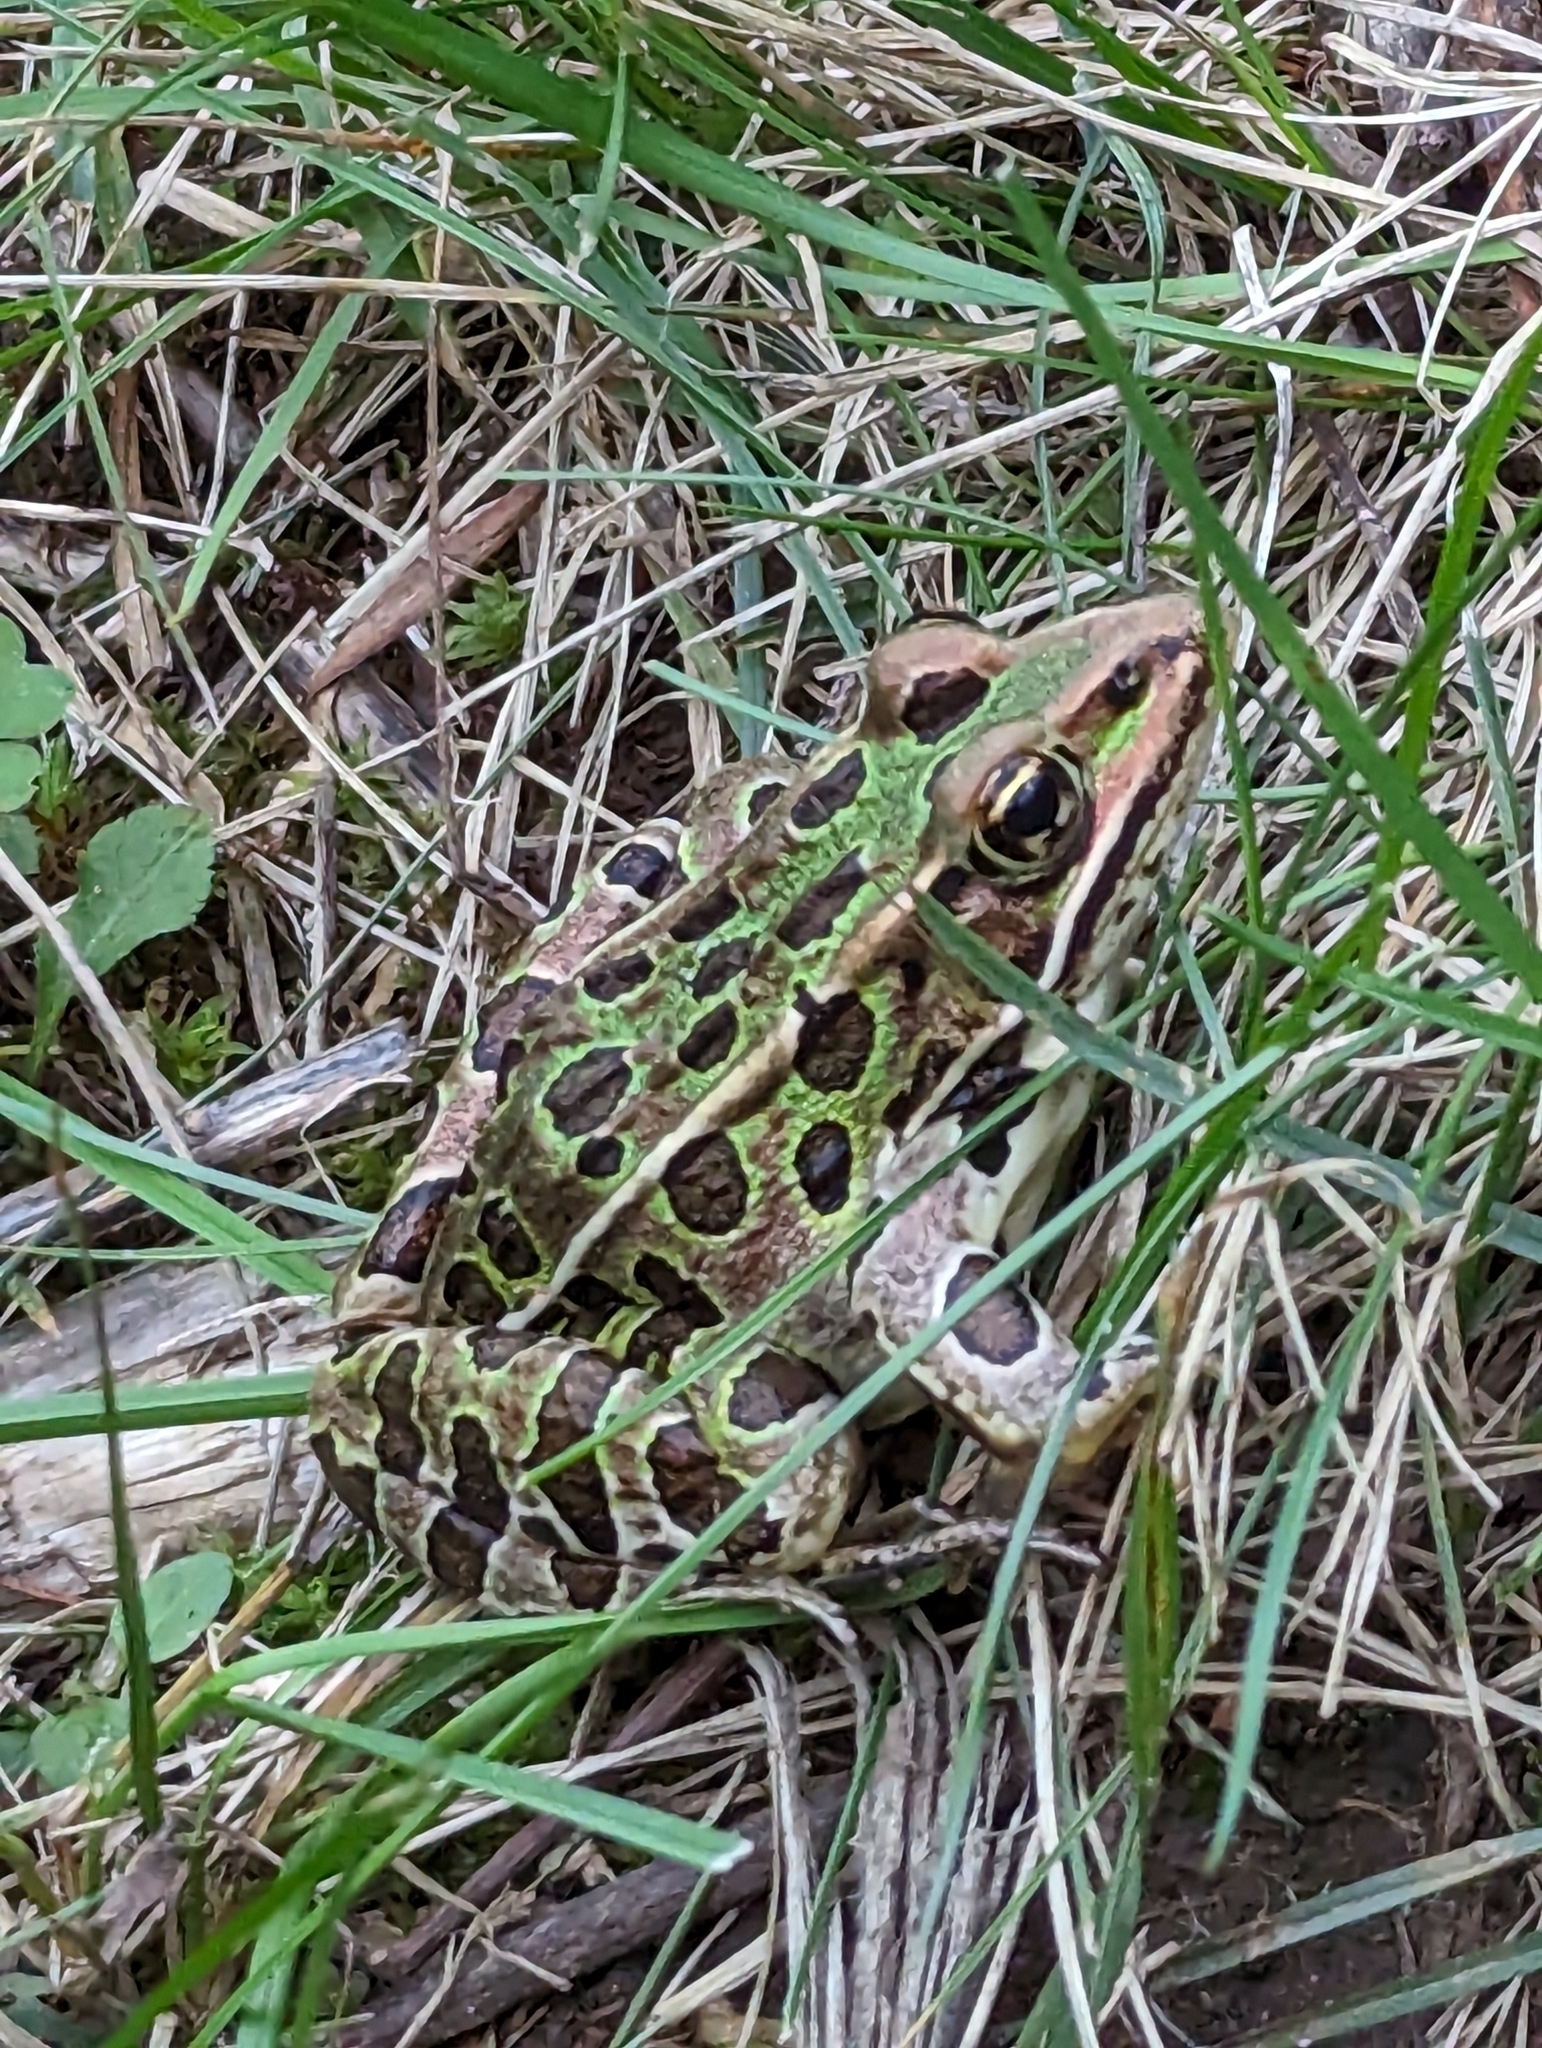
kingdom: Animalia
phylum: Chordata
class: Amphibia
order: Anura
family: Ranidae
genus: Lithobates
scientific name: Lithobates pipiens
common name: Northern leopard frog
